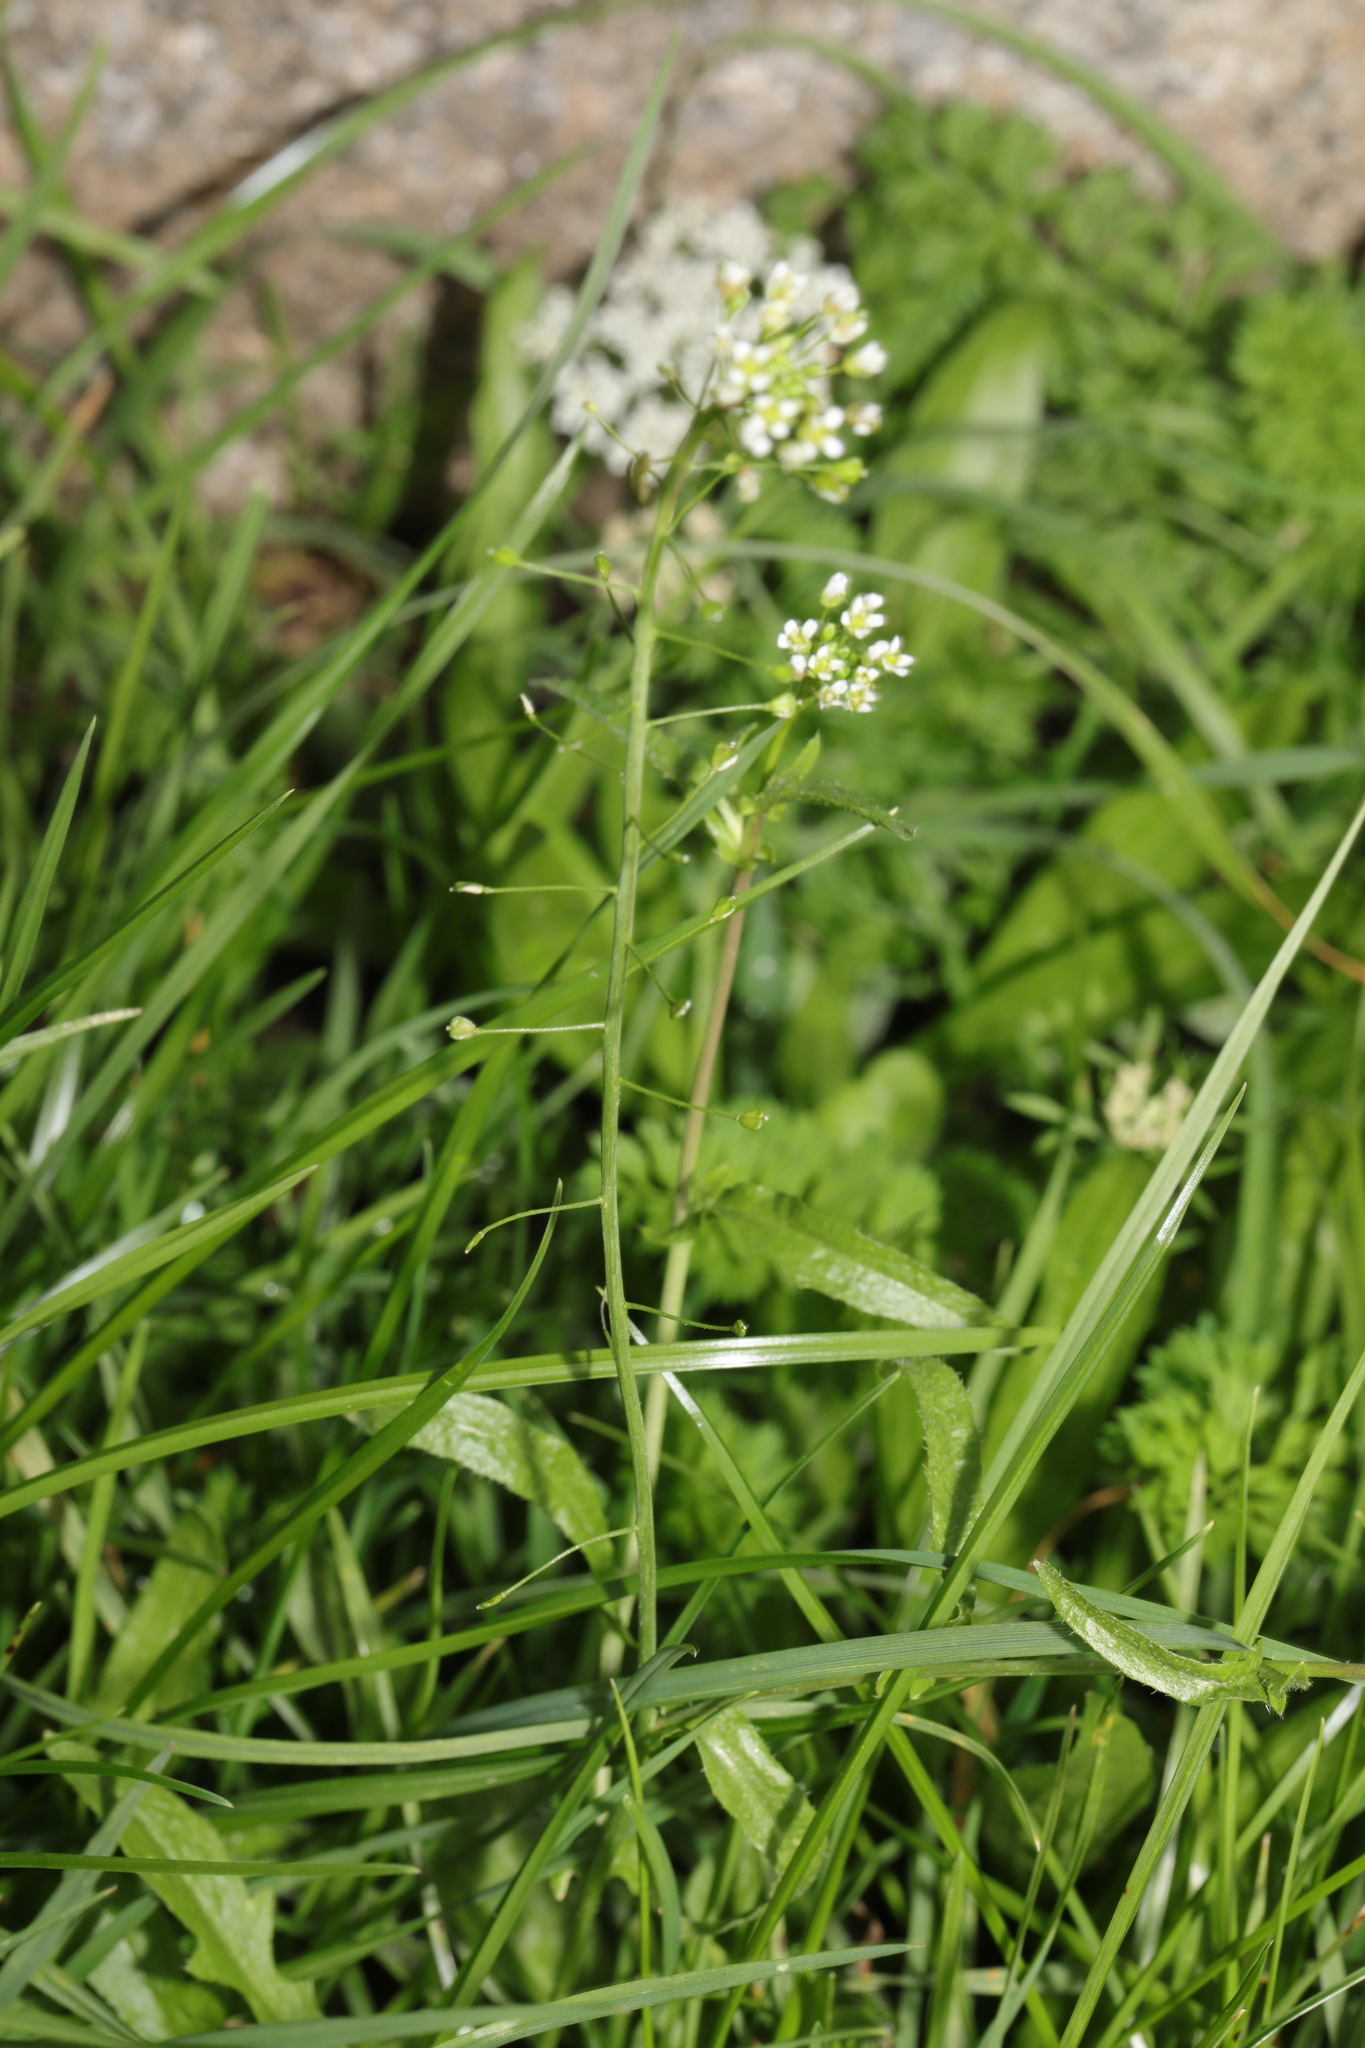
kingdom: Plantae
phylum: Tracheophyta
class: Magnoliopsida
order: Brassicales
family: Brassicaceae
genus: Capsella
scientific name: Capsella bursa-pastoris
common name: Shepherd's purse
